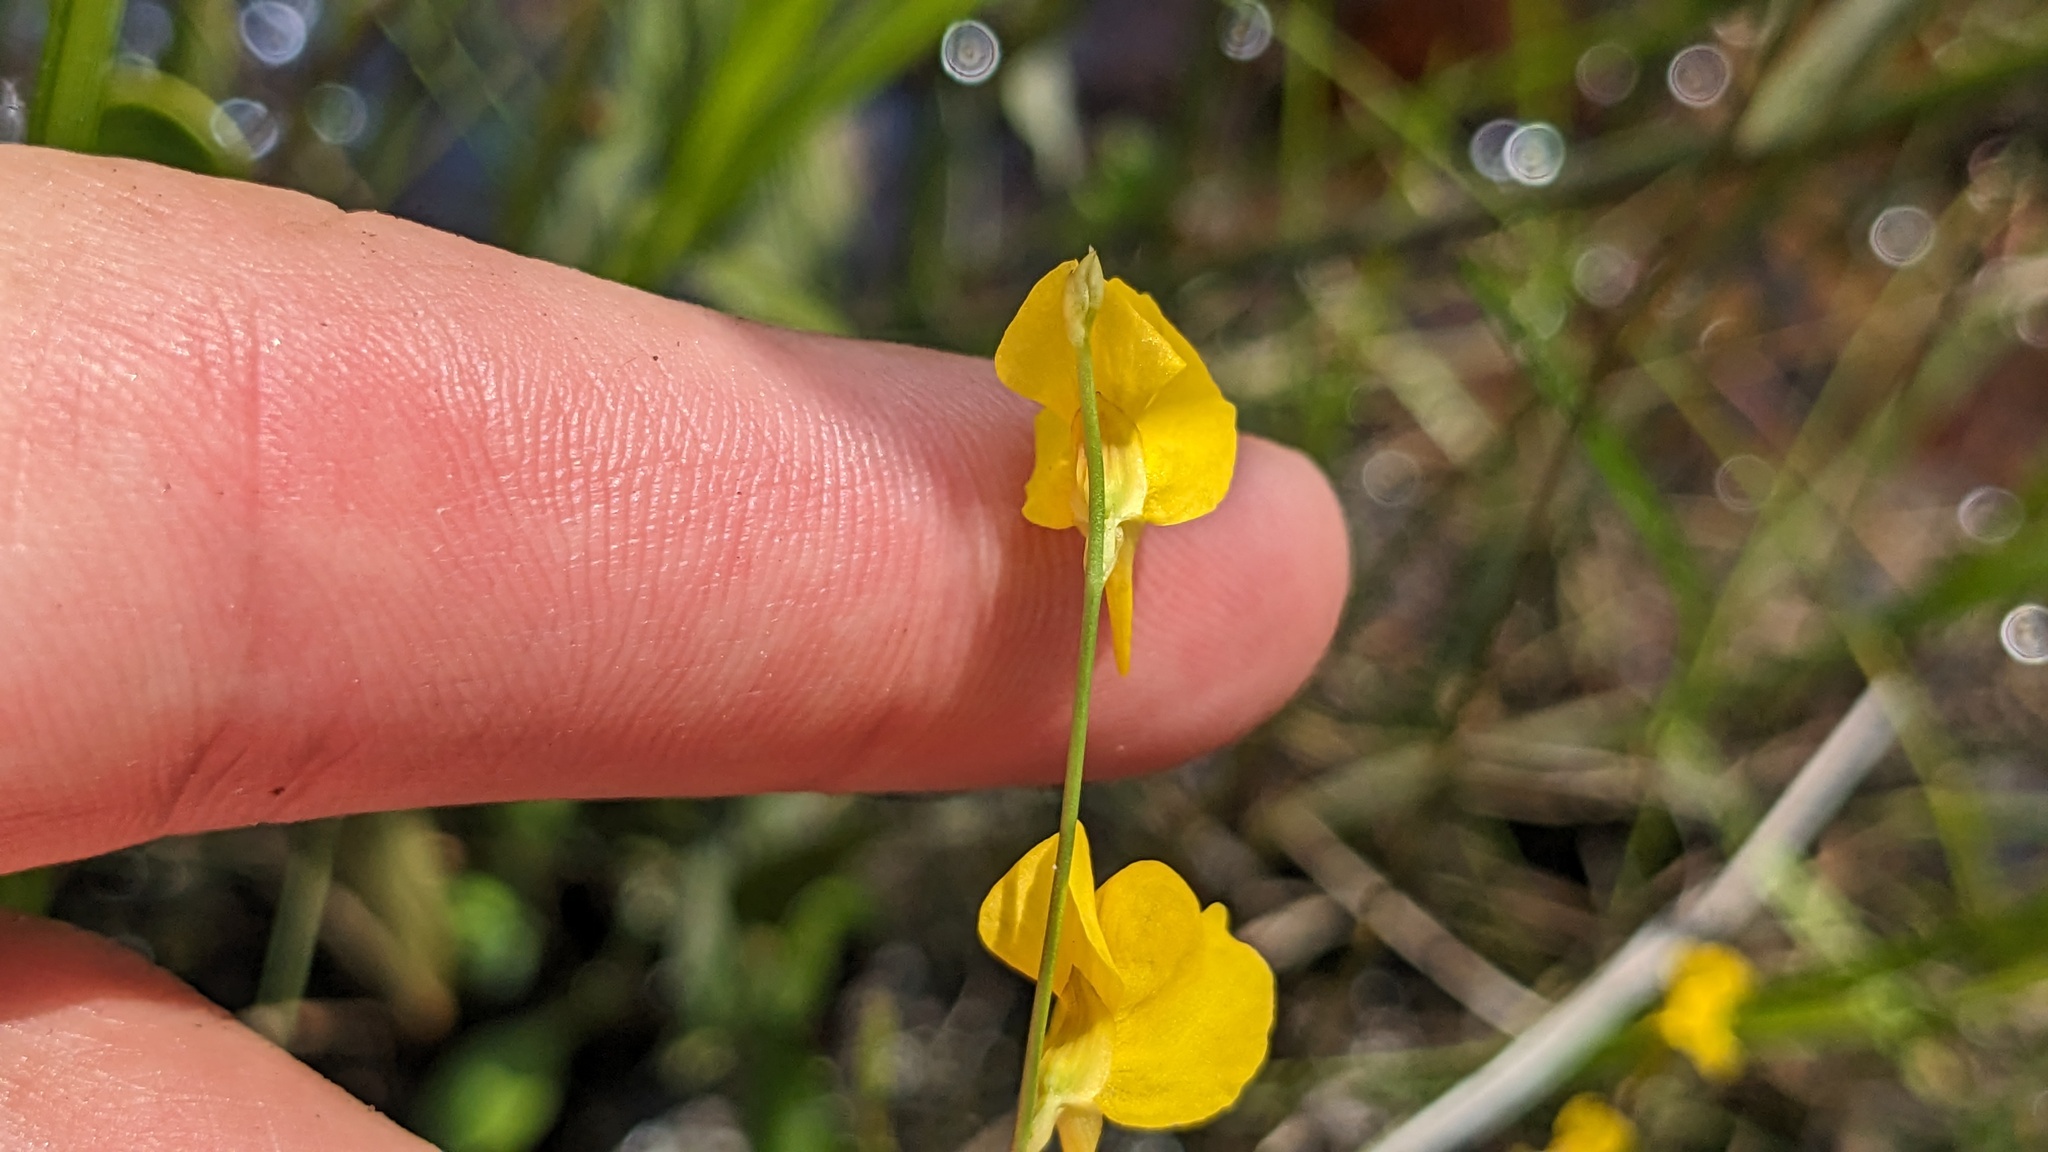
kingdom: Plantae
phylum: Tracheophyta
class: Magnoliopsida
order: Lamiales
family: Lentibulariaceae
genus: Utricularia
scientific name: Utricularia juncea
